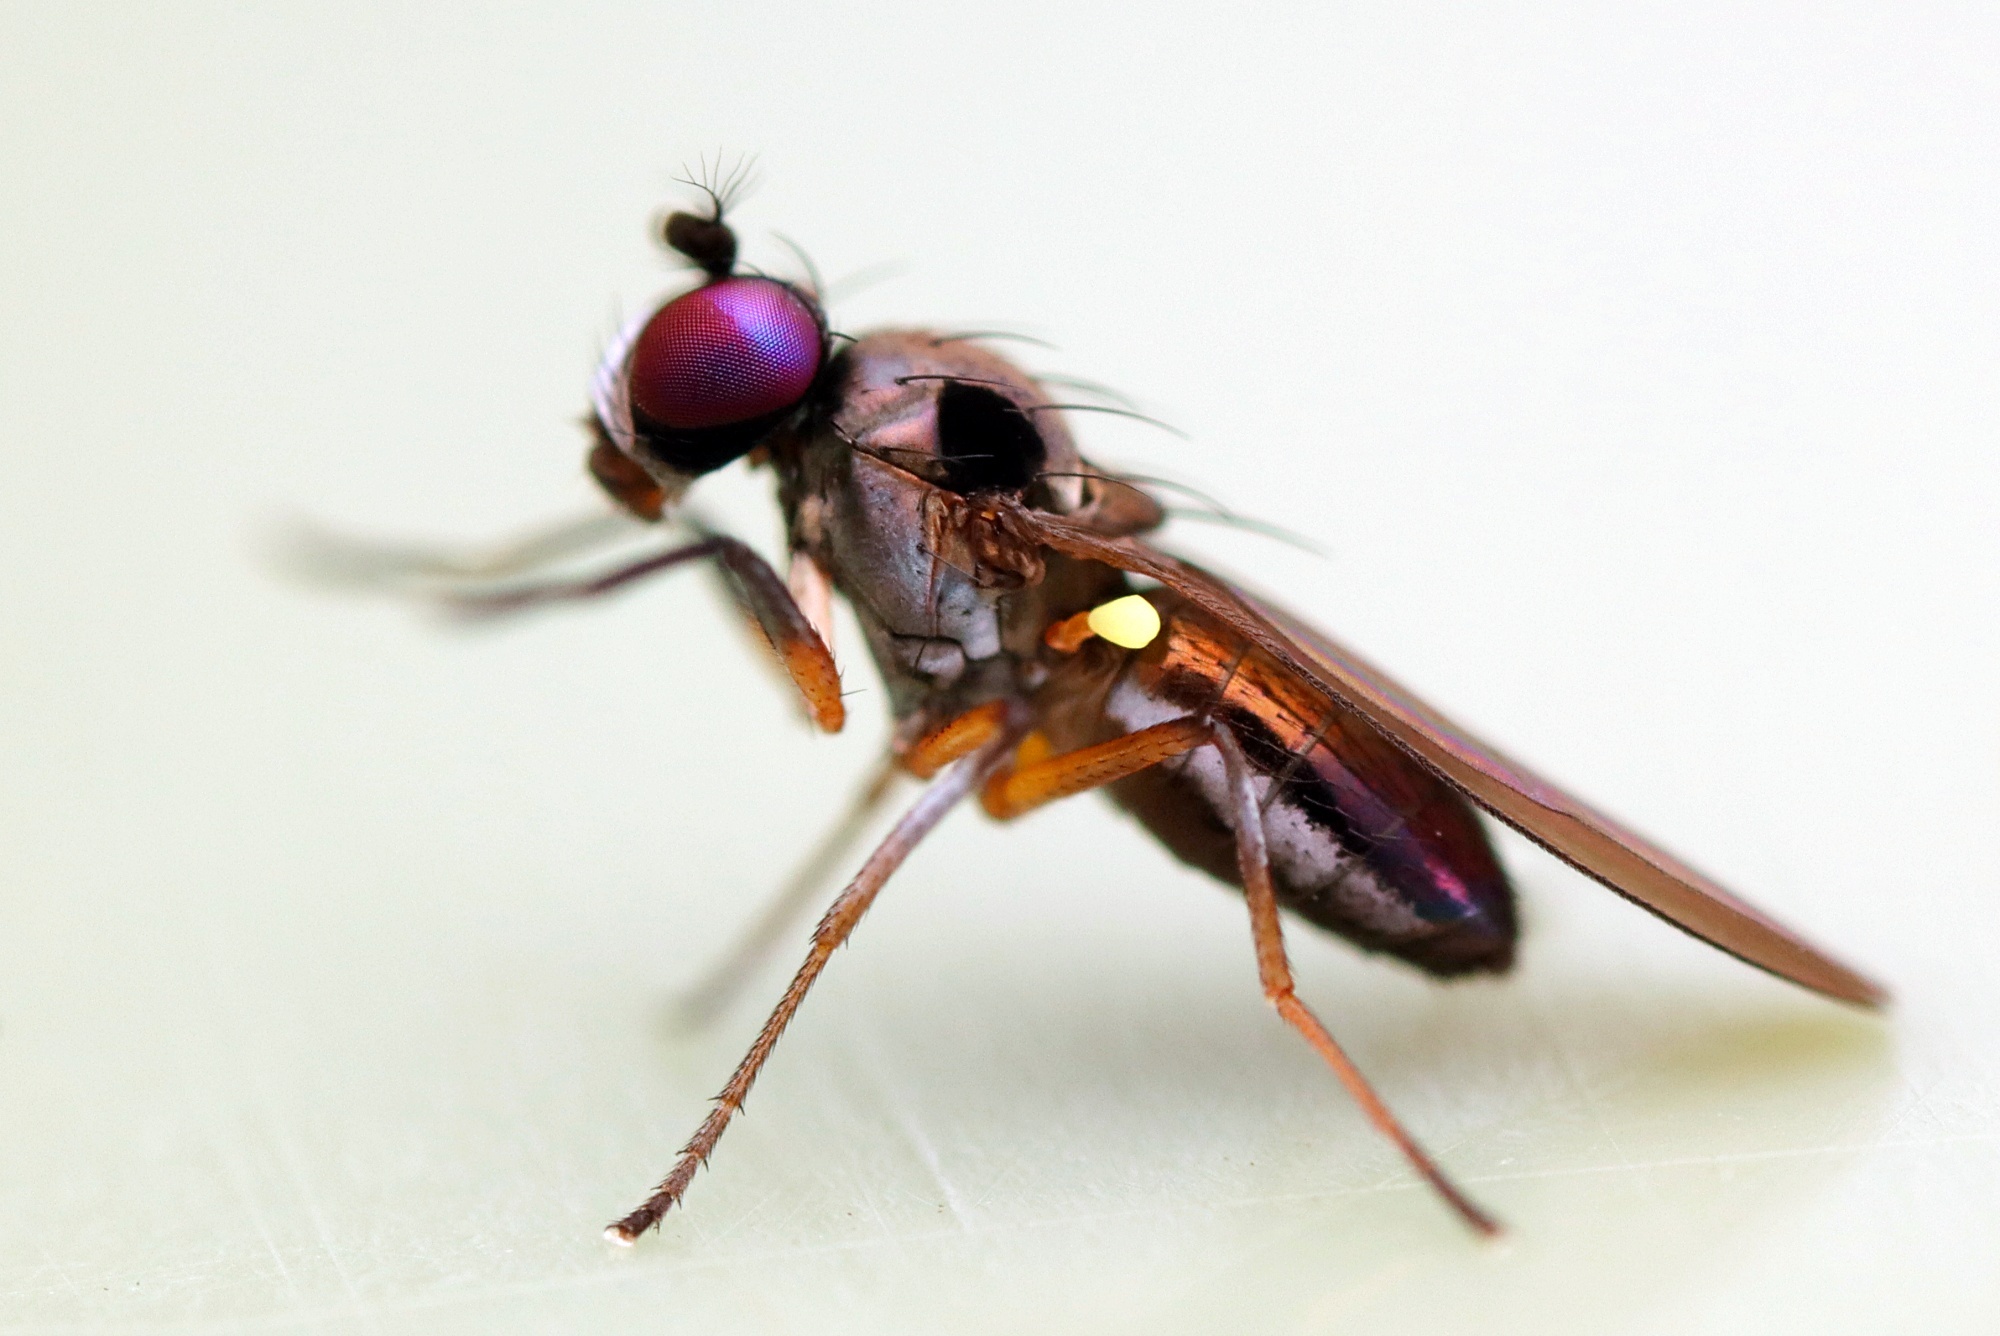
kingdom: Animalia
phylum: Arthropoda
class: Insecta
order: Diptera
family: Ephydridae
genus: Hydrellia
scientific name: Hydrellia tritici
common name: Shore fly
